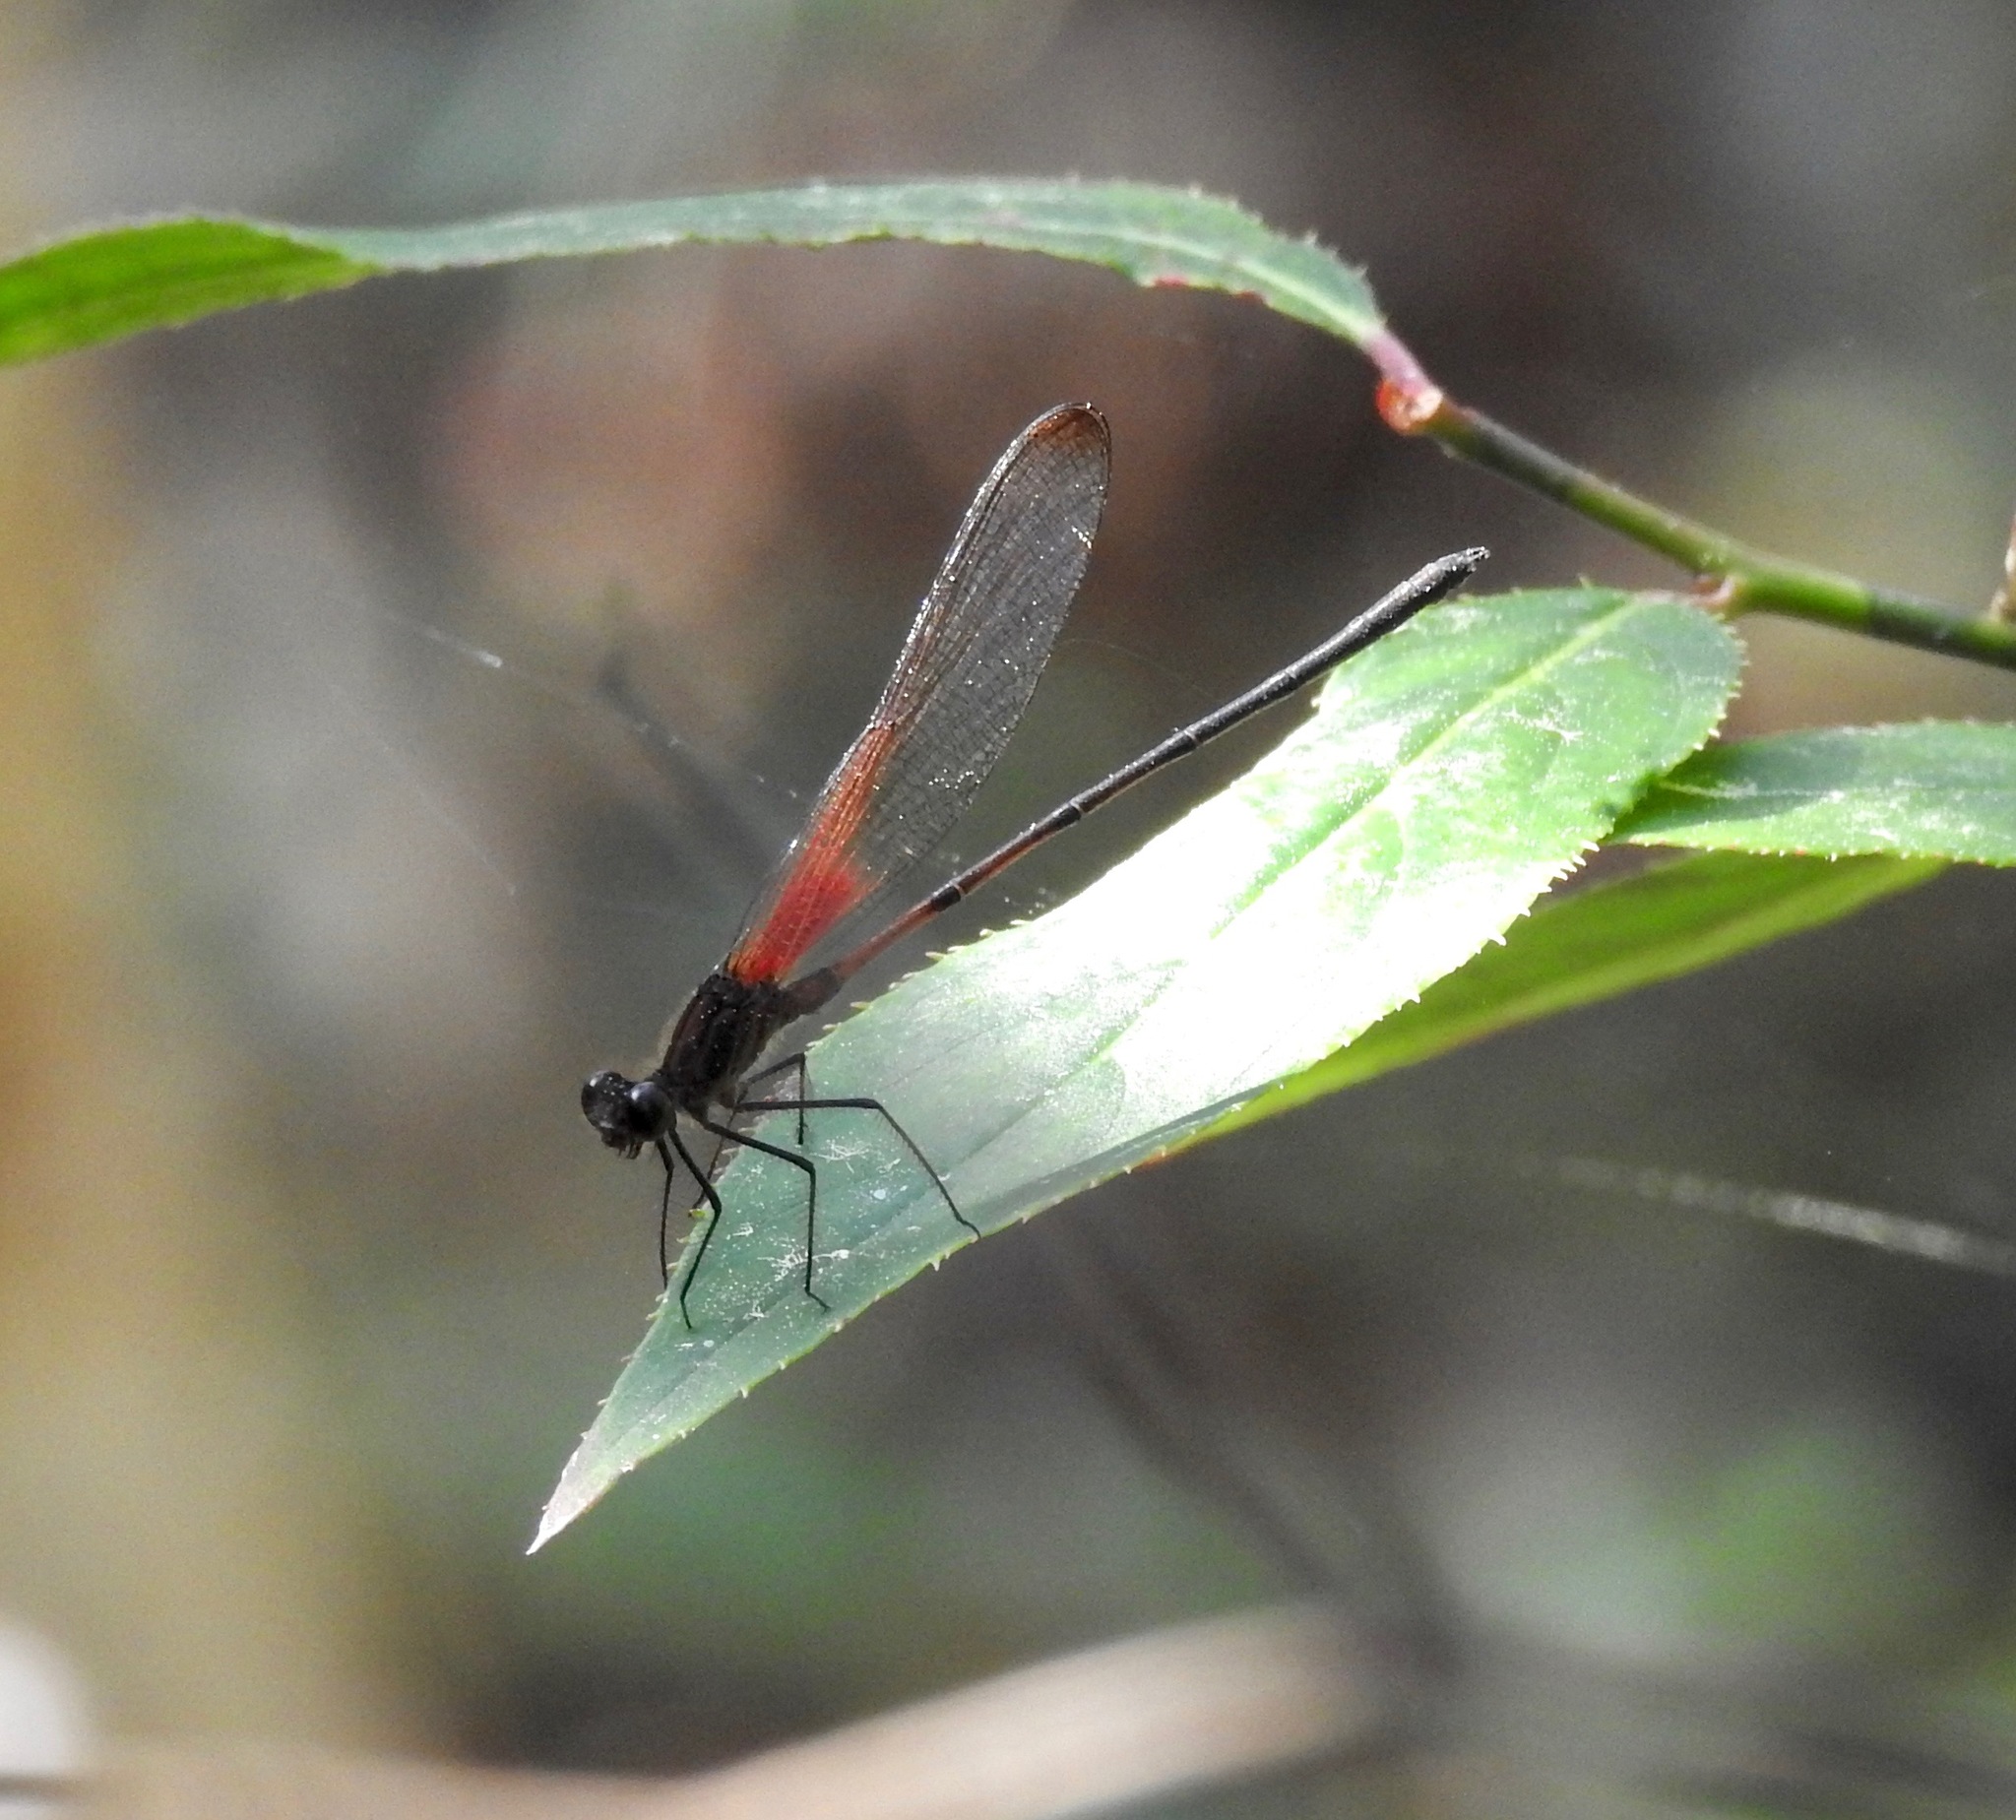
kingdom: Animalia
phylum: Arthropoda
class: Insecta
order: Odonata
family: Calopterygidae
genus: Hetaerina
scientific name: Hetaerina titia
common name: Smoky rubyspot
